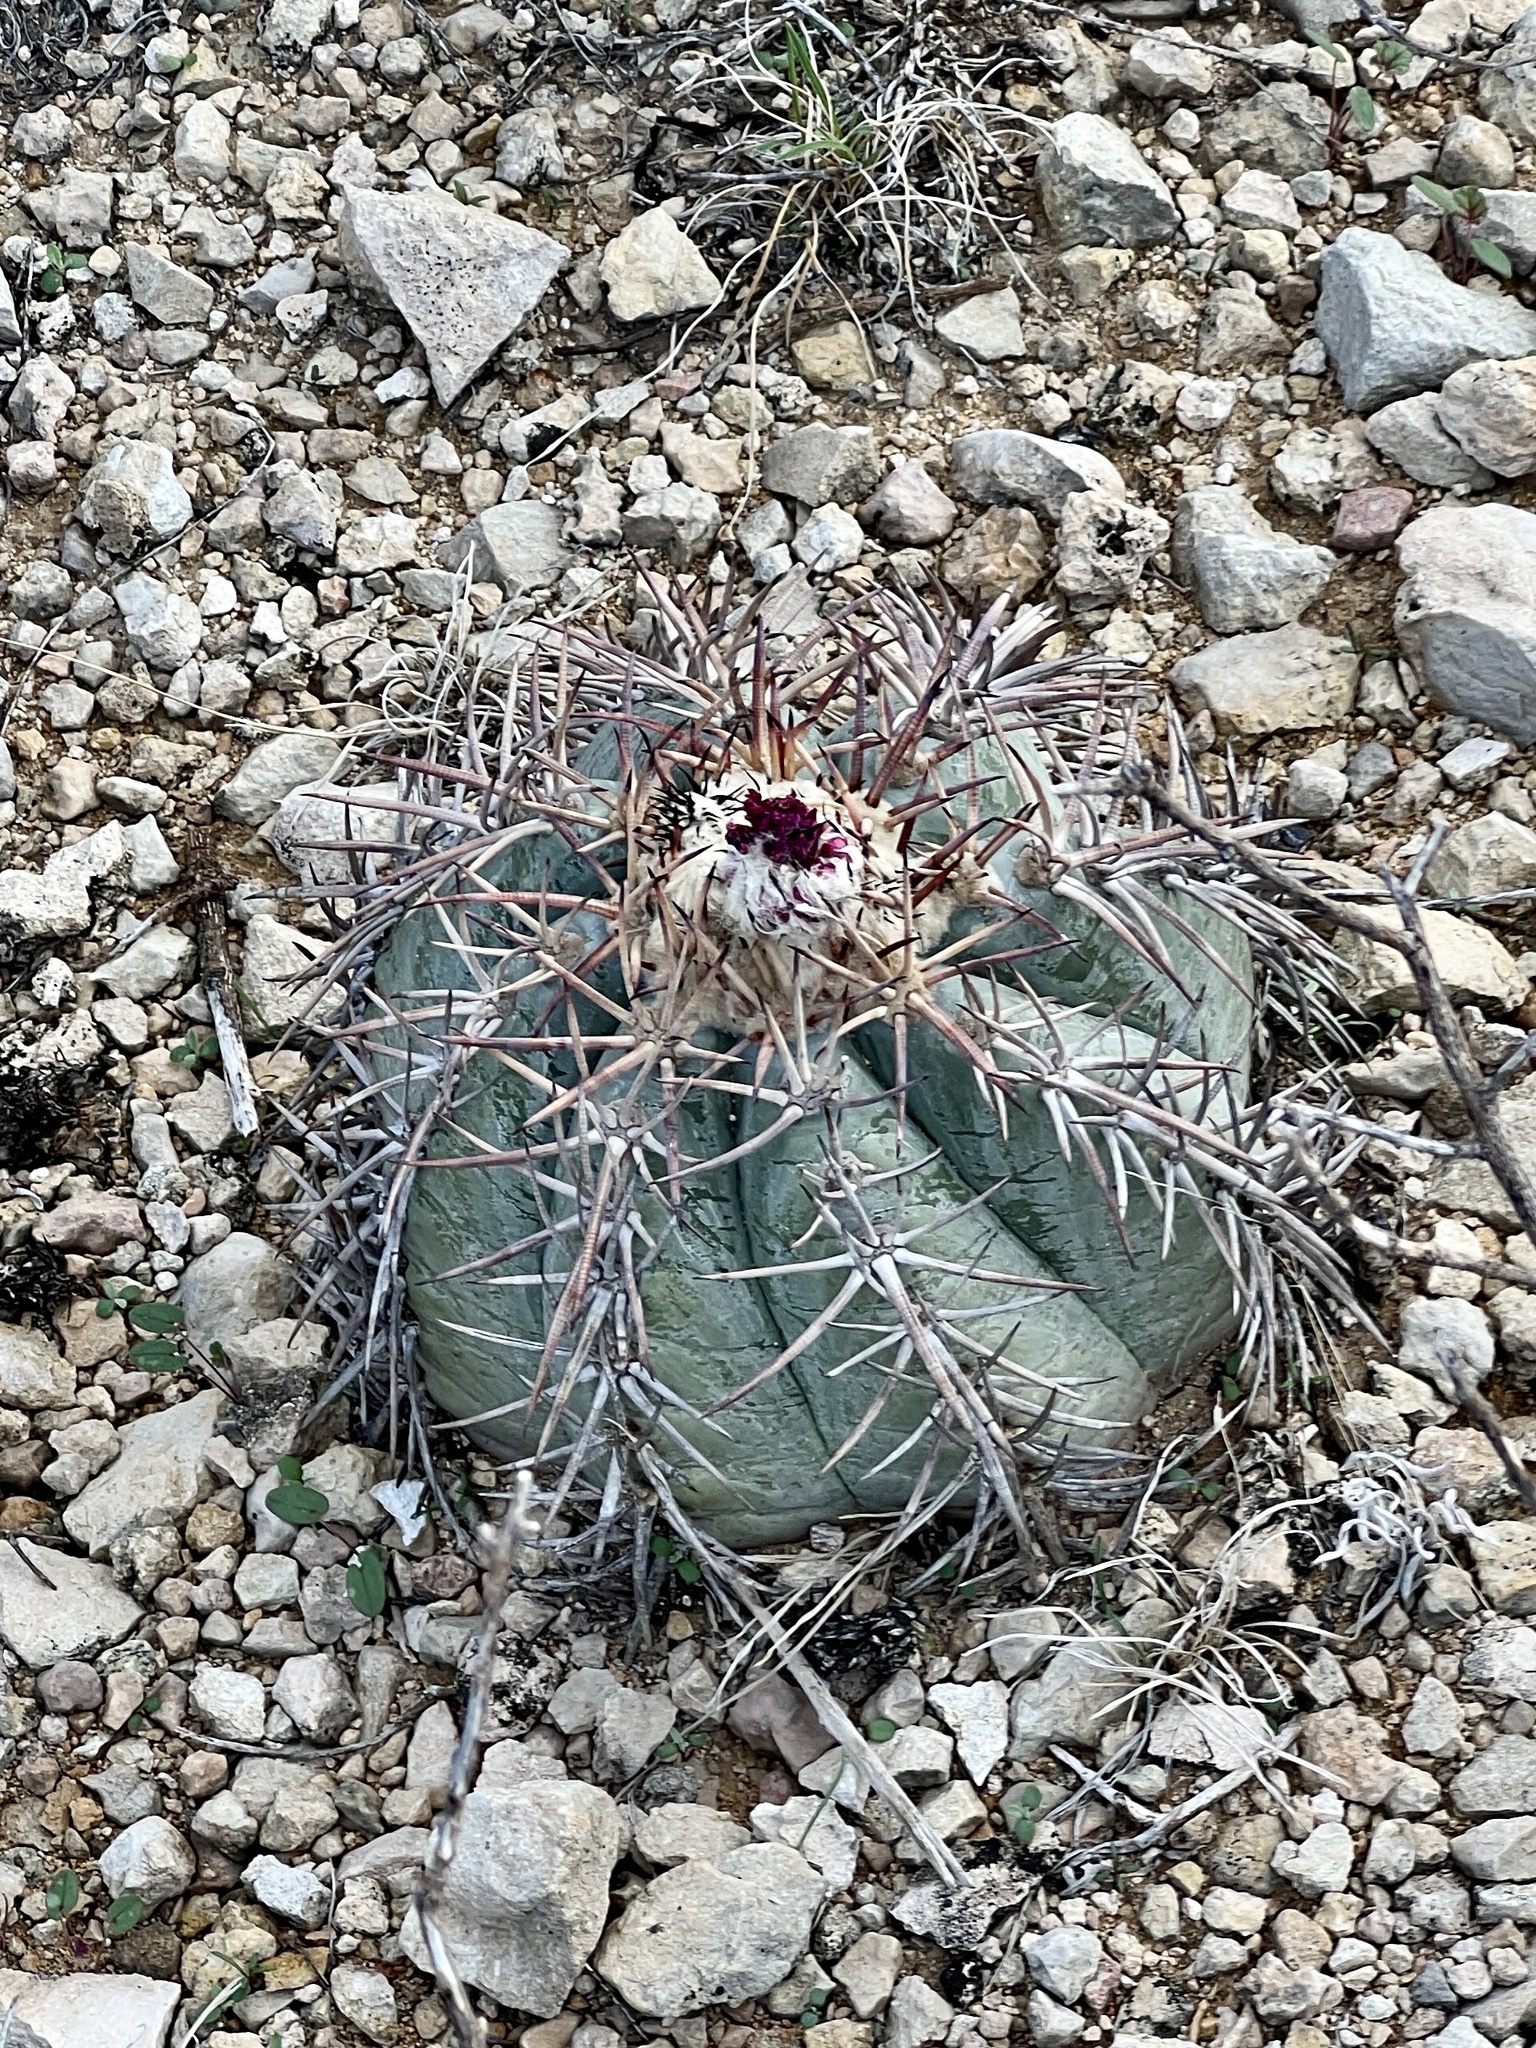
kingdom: Plantae
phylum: Tracheophyta
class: Magnoliopsida
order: Caryophyllales
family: Cactaceae
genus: Echinocactus
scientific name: Echinocactus horizonthalonius
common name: Devilshead
